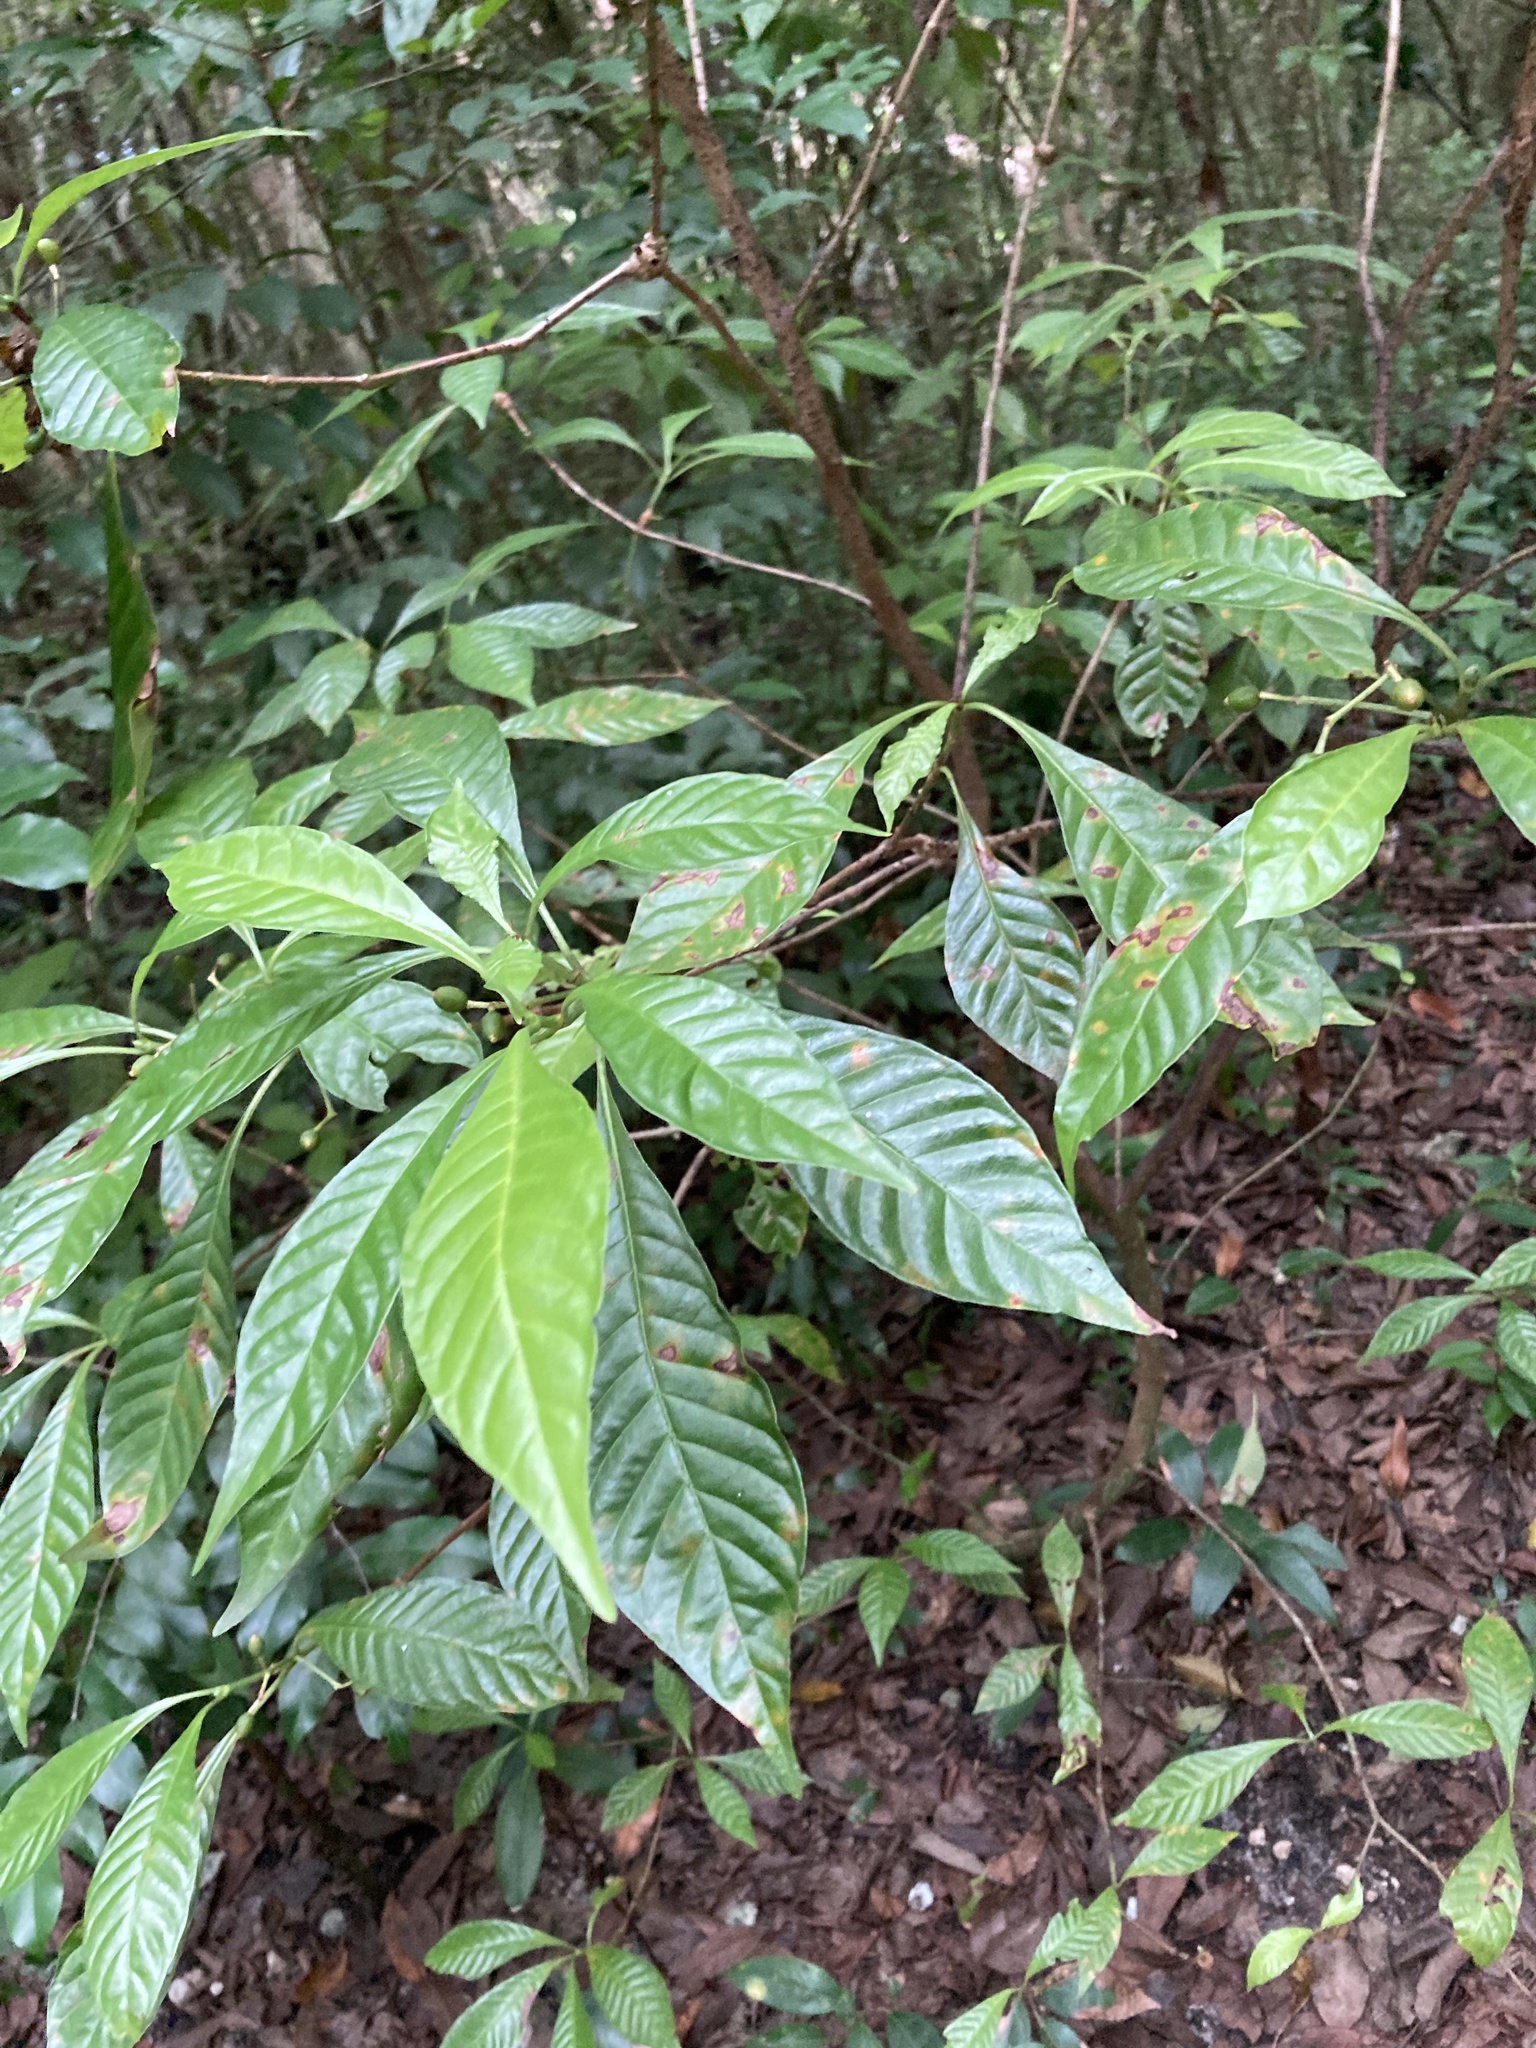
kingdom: Plantae
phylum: Tracheophyta
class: Magnoliopsida
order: Gentianales
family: Rubiaceae
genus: Psychotria
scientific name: Psychotria nervosa
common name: Bastard cankerberry
